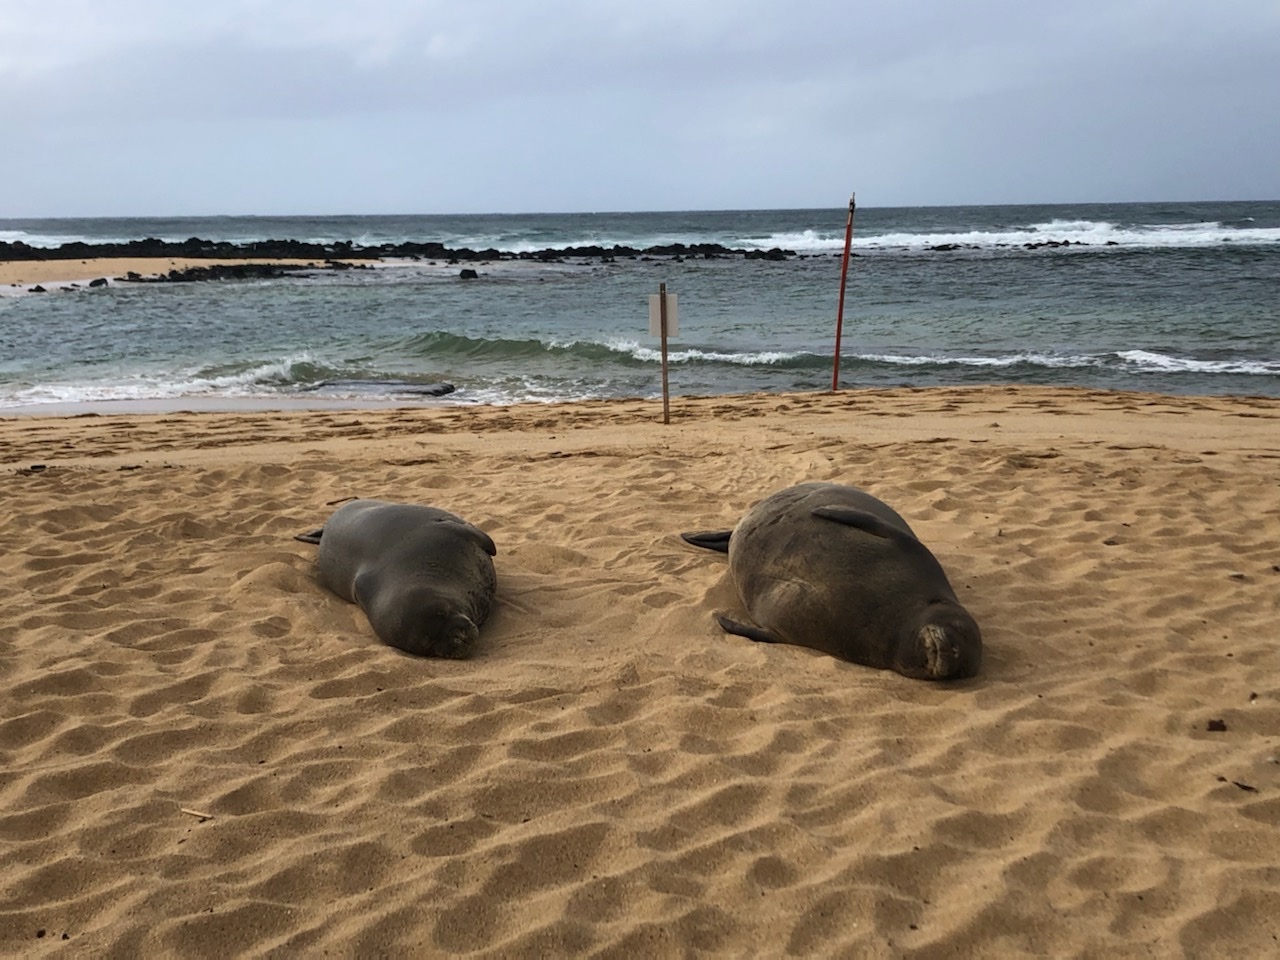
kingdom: Animalia
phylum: Chordata
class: Mammalia
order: Carnivora
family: Phocidae
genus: Neomonachus
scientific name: Neomonachus schauinslandi
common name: Hawaiian monk seal
